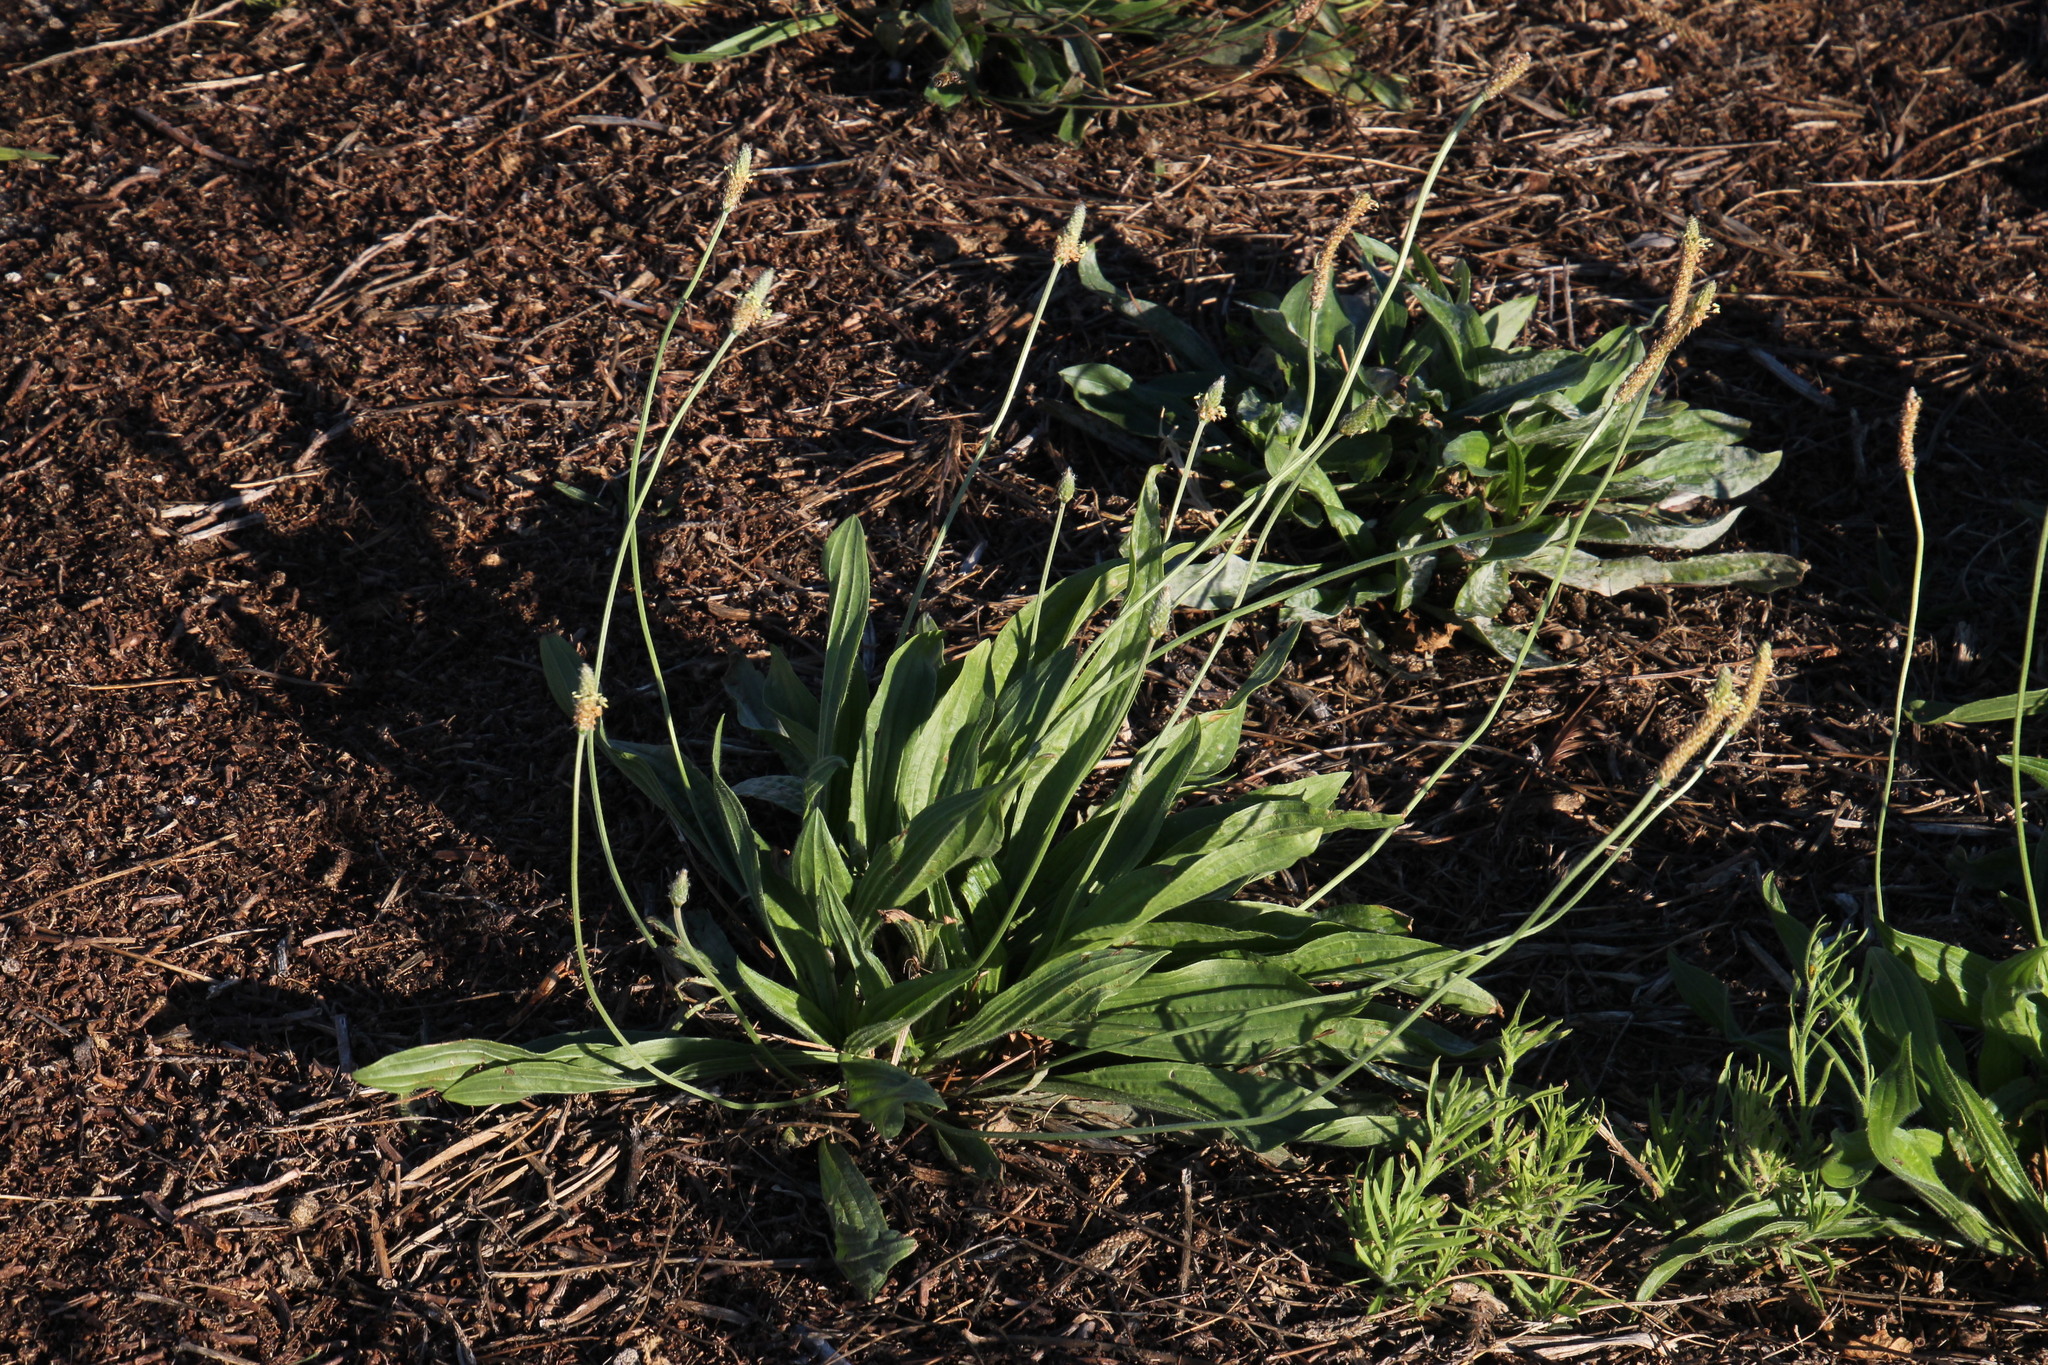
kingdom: Plantae
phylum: Tracheophyta
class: Magnoliopsida
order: Lamiales
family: Plantaginaceae
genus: Plantago
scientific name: Plantago lanceolata
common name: Ribwort plantain
